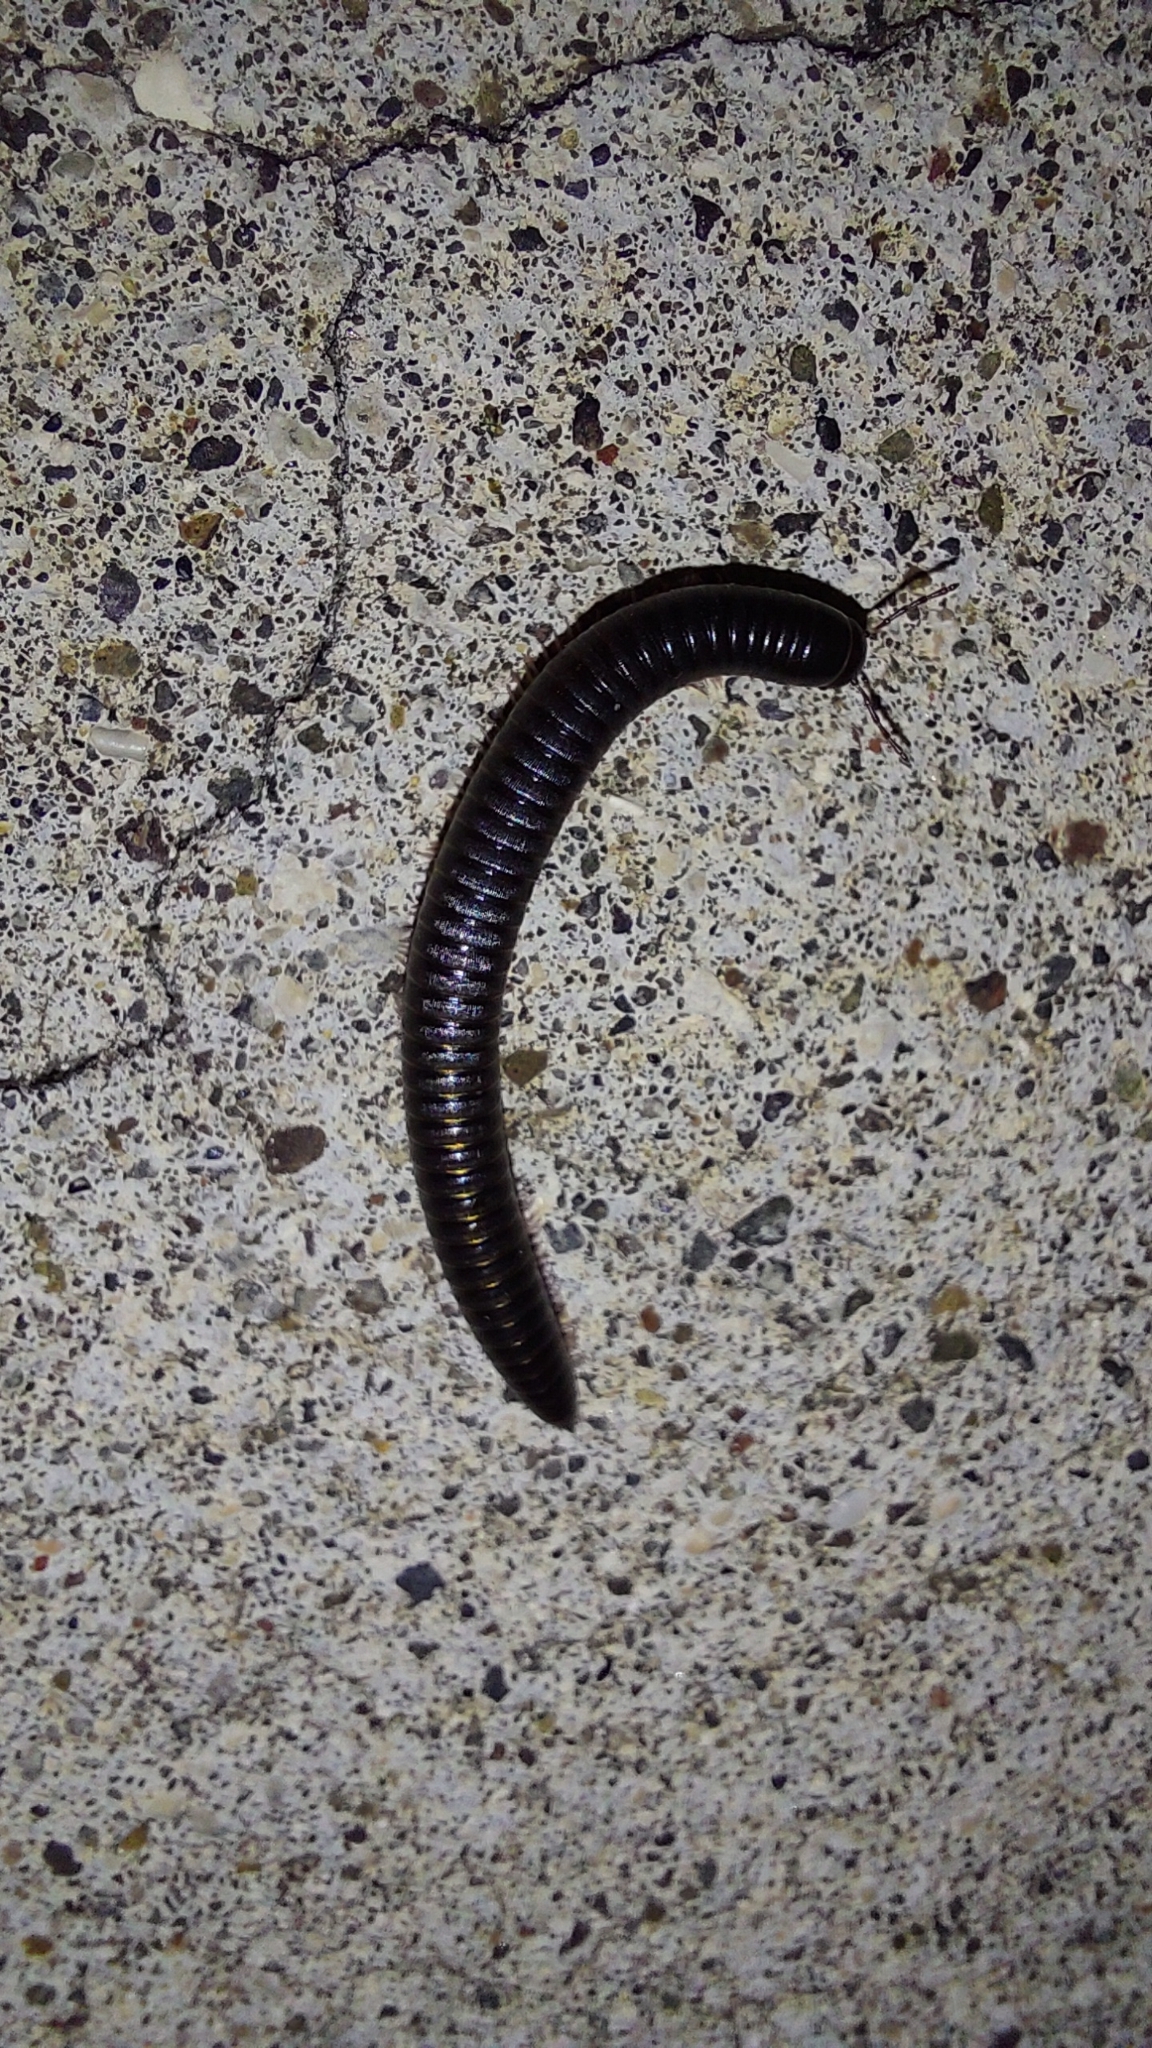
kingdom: Animalia
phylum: Arthropoda
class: Diplopoda
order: Julida
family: Julidae
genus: Ommatoiulus
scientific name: Ommatoiulus moreleti
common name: Portuguese millipede
